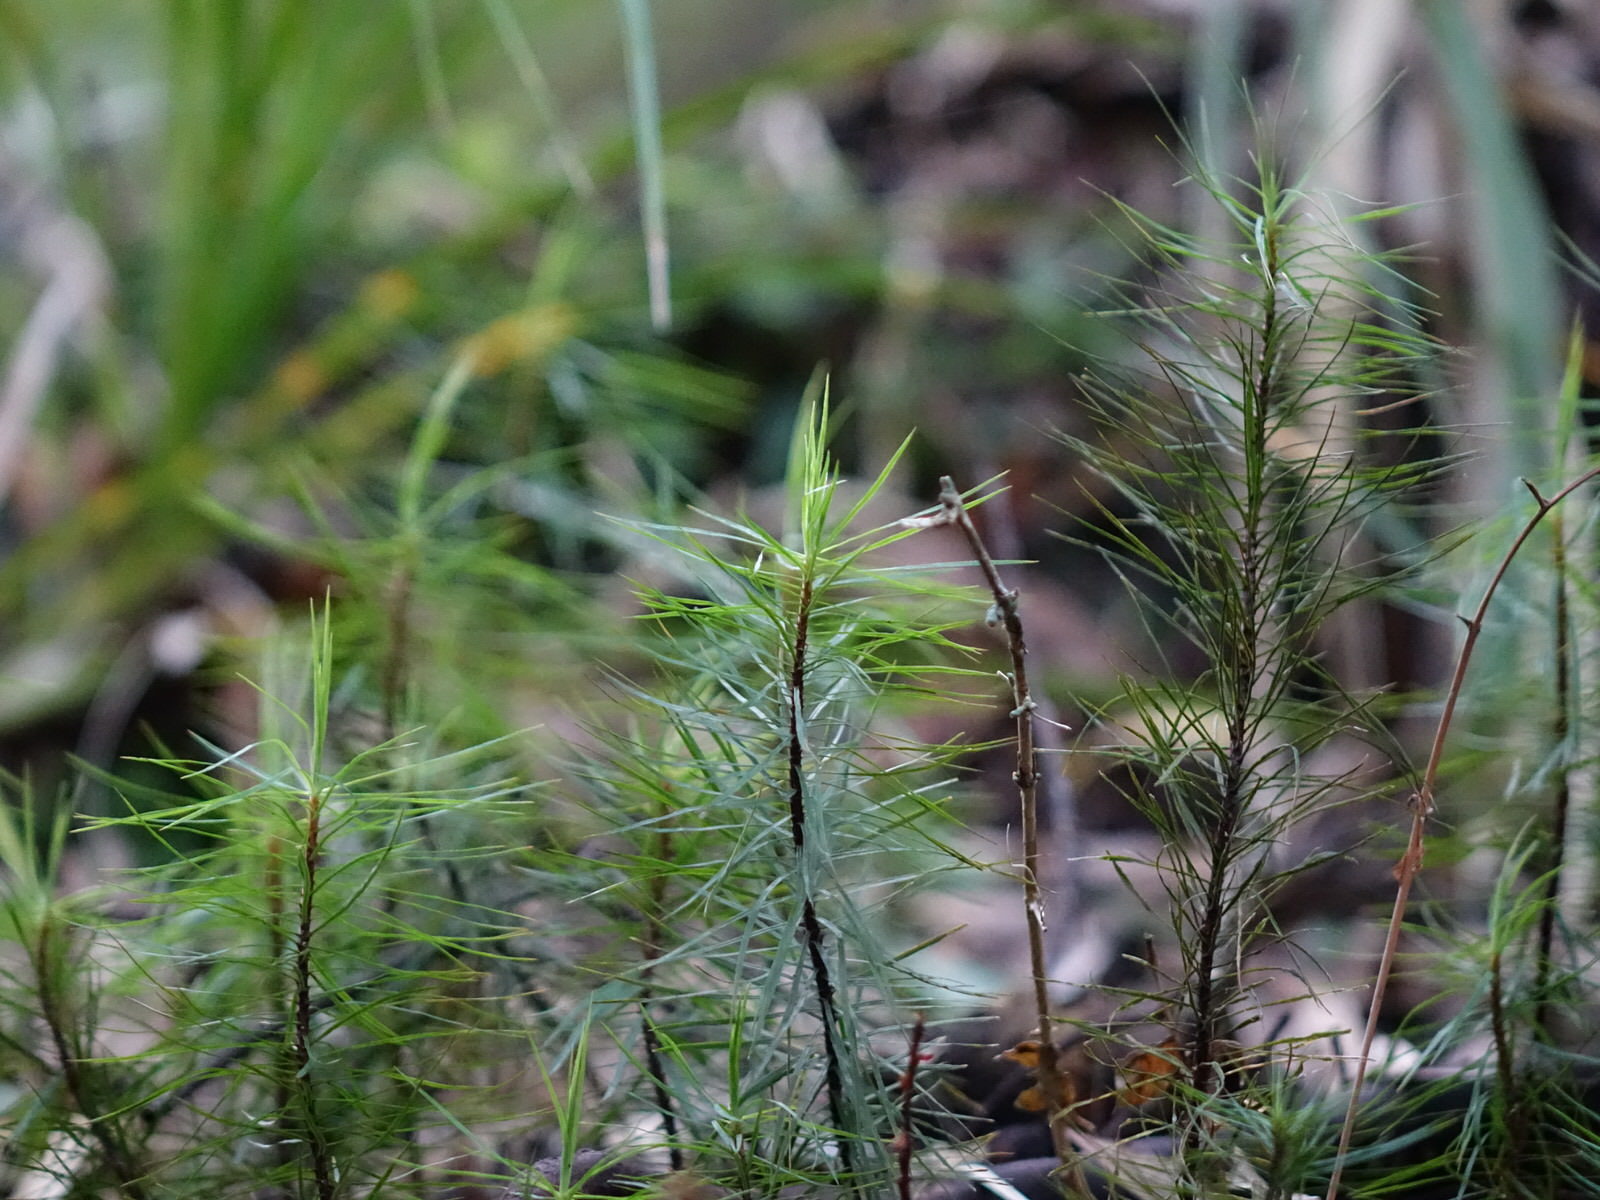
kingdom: Plantae
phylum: Bryophyta
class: Polytrichopsida
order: Polytrichales
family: Polytrichaceae
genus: Dawsonia
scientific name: Dawsonia superba
